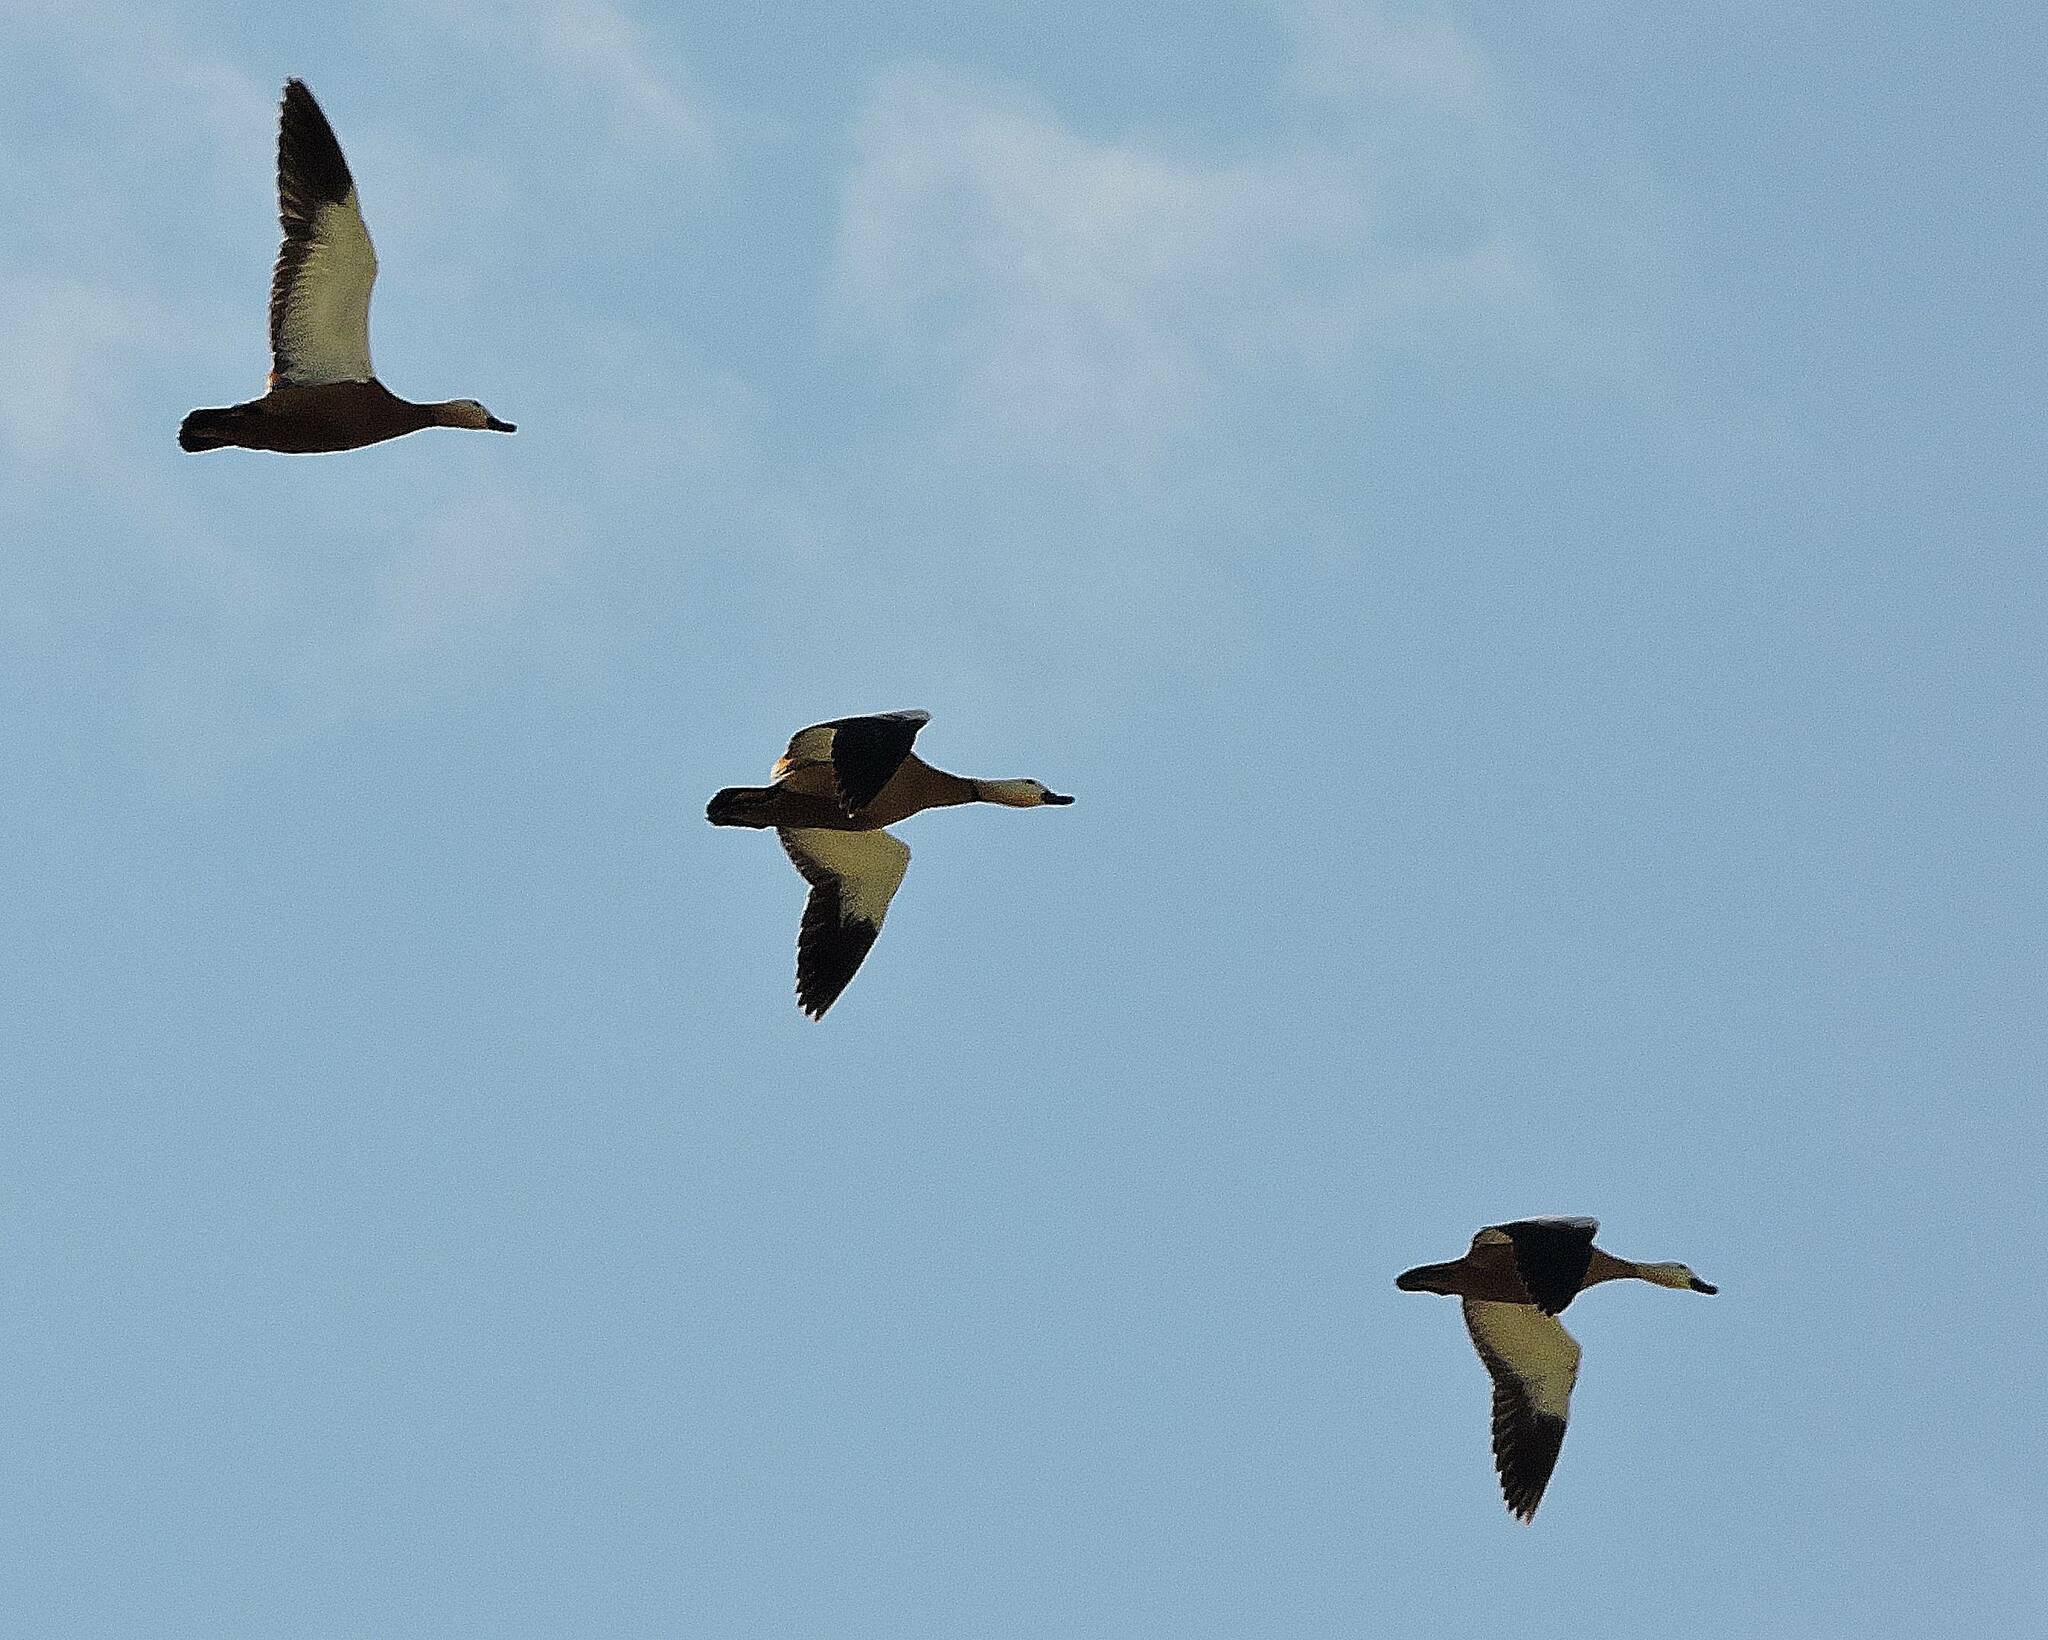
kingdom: Animalia
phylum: Chordata
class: Aves
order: Anseriformes
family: Anatidae
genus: Tadorna
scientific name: Tadorna ferruginea
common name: Ruddy shelduck
